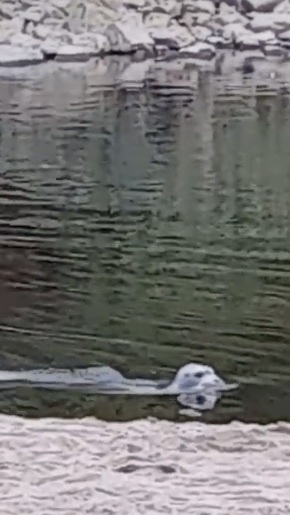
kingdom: Animalia
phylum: Chordata
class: Mammalia
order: Carnivora
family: Phocidae
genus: Erignathus
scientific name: Erignathus barbatus
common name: Bearded seal
